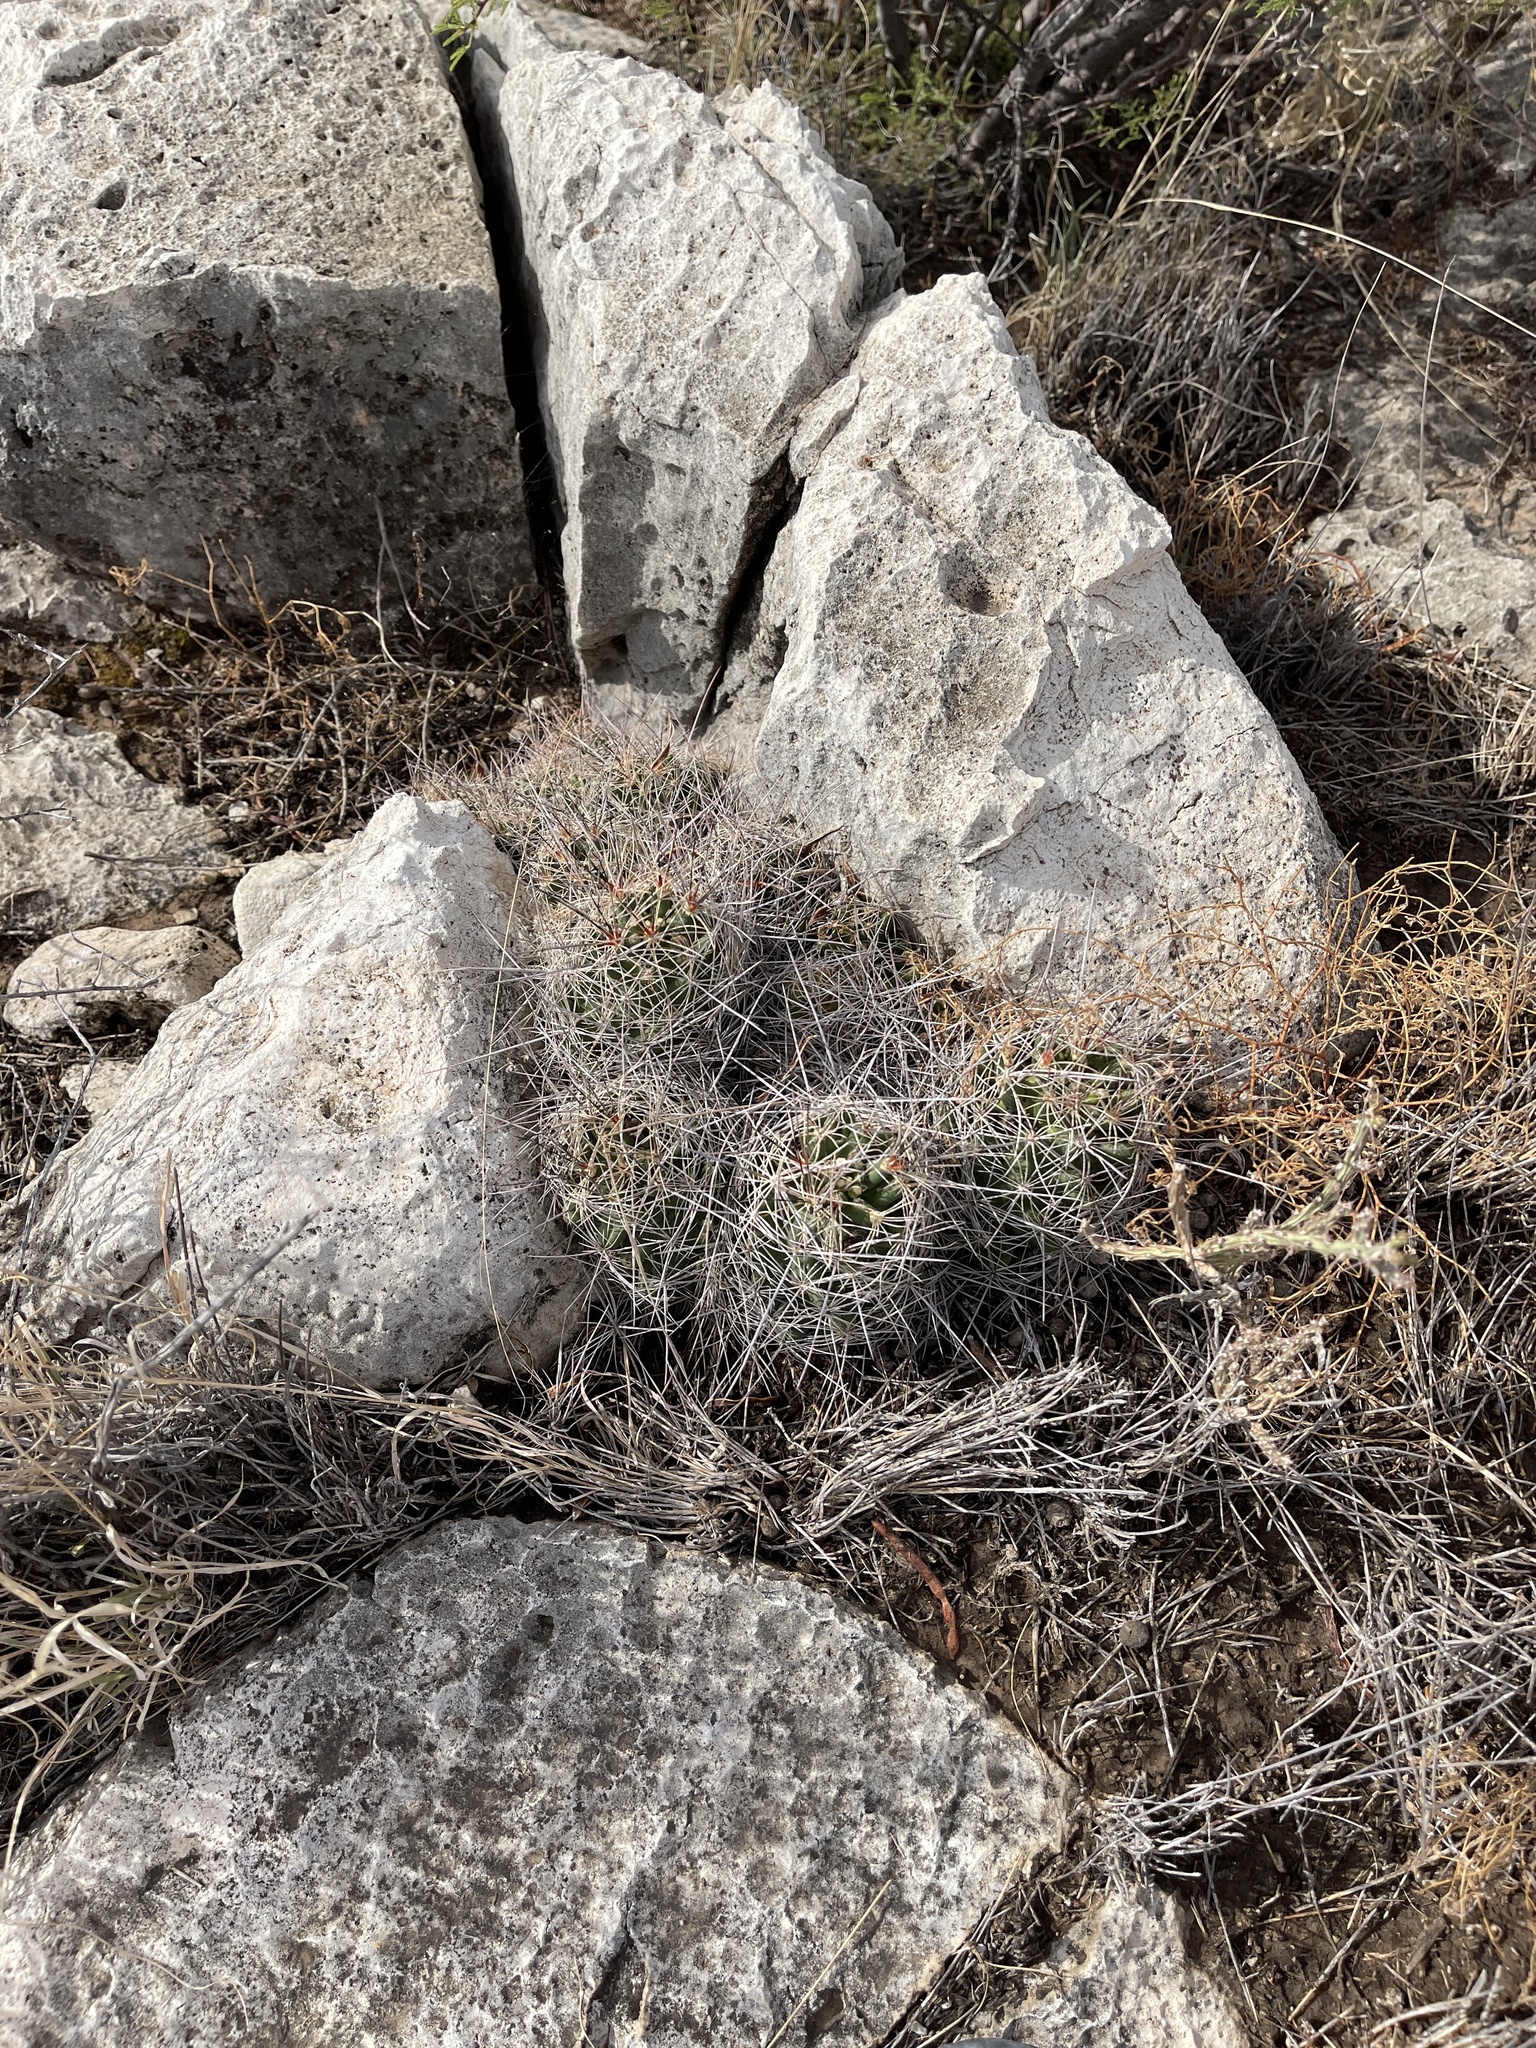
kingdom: Plantae
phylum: Tracheophyta
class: Magnoliopsida
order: Caryophyllales
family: Cactaceae
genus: Coryphantha
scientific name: Coryphantha macromeris
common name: Nipple beehive cactus
